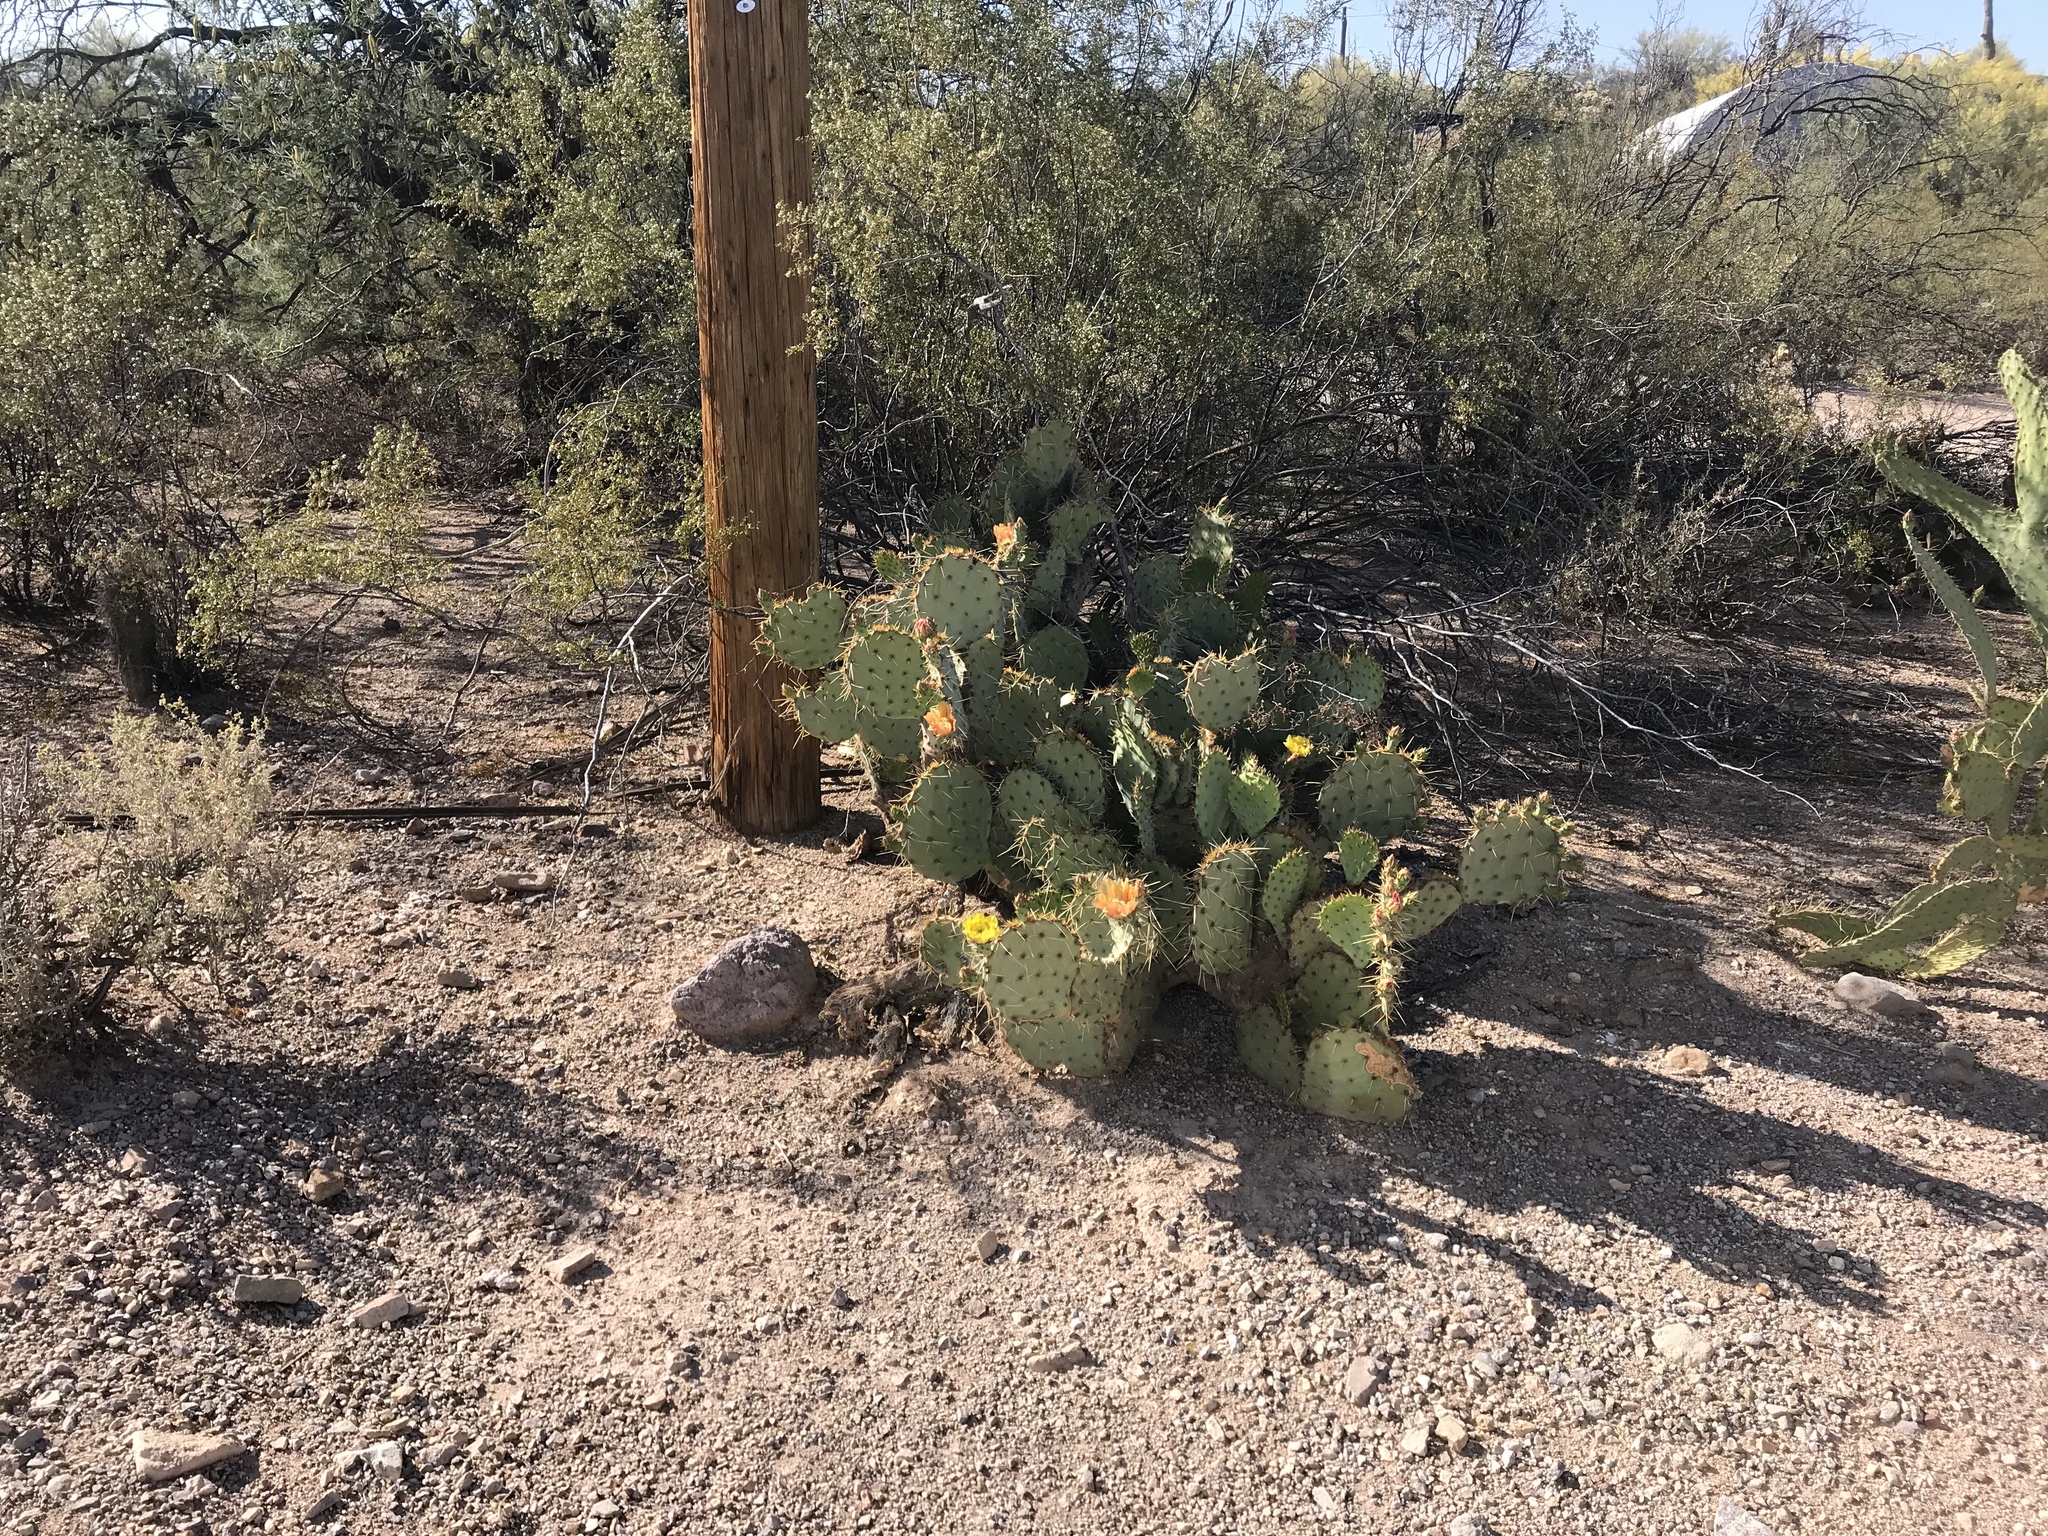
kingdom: Plantae
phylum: Tracheophyta
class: Magnoliopsida
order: Caryophyllales
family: Cactaceae
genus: Opuntia
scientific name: Opuntia engelmannii
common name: Cactus-apple
